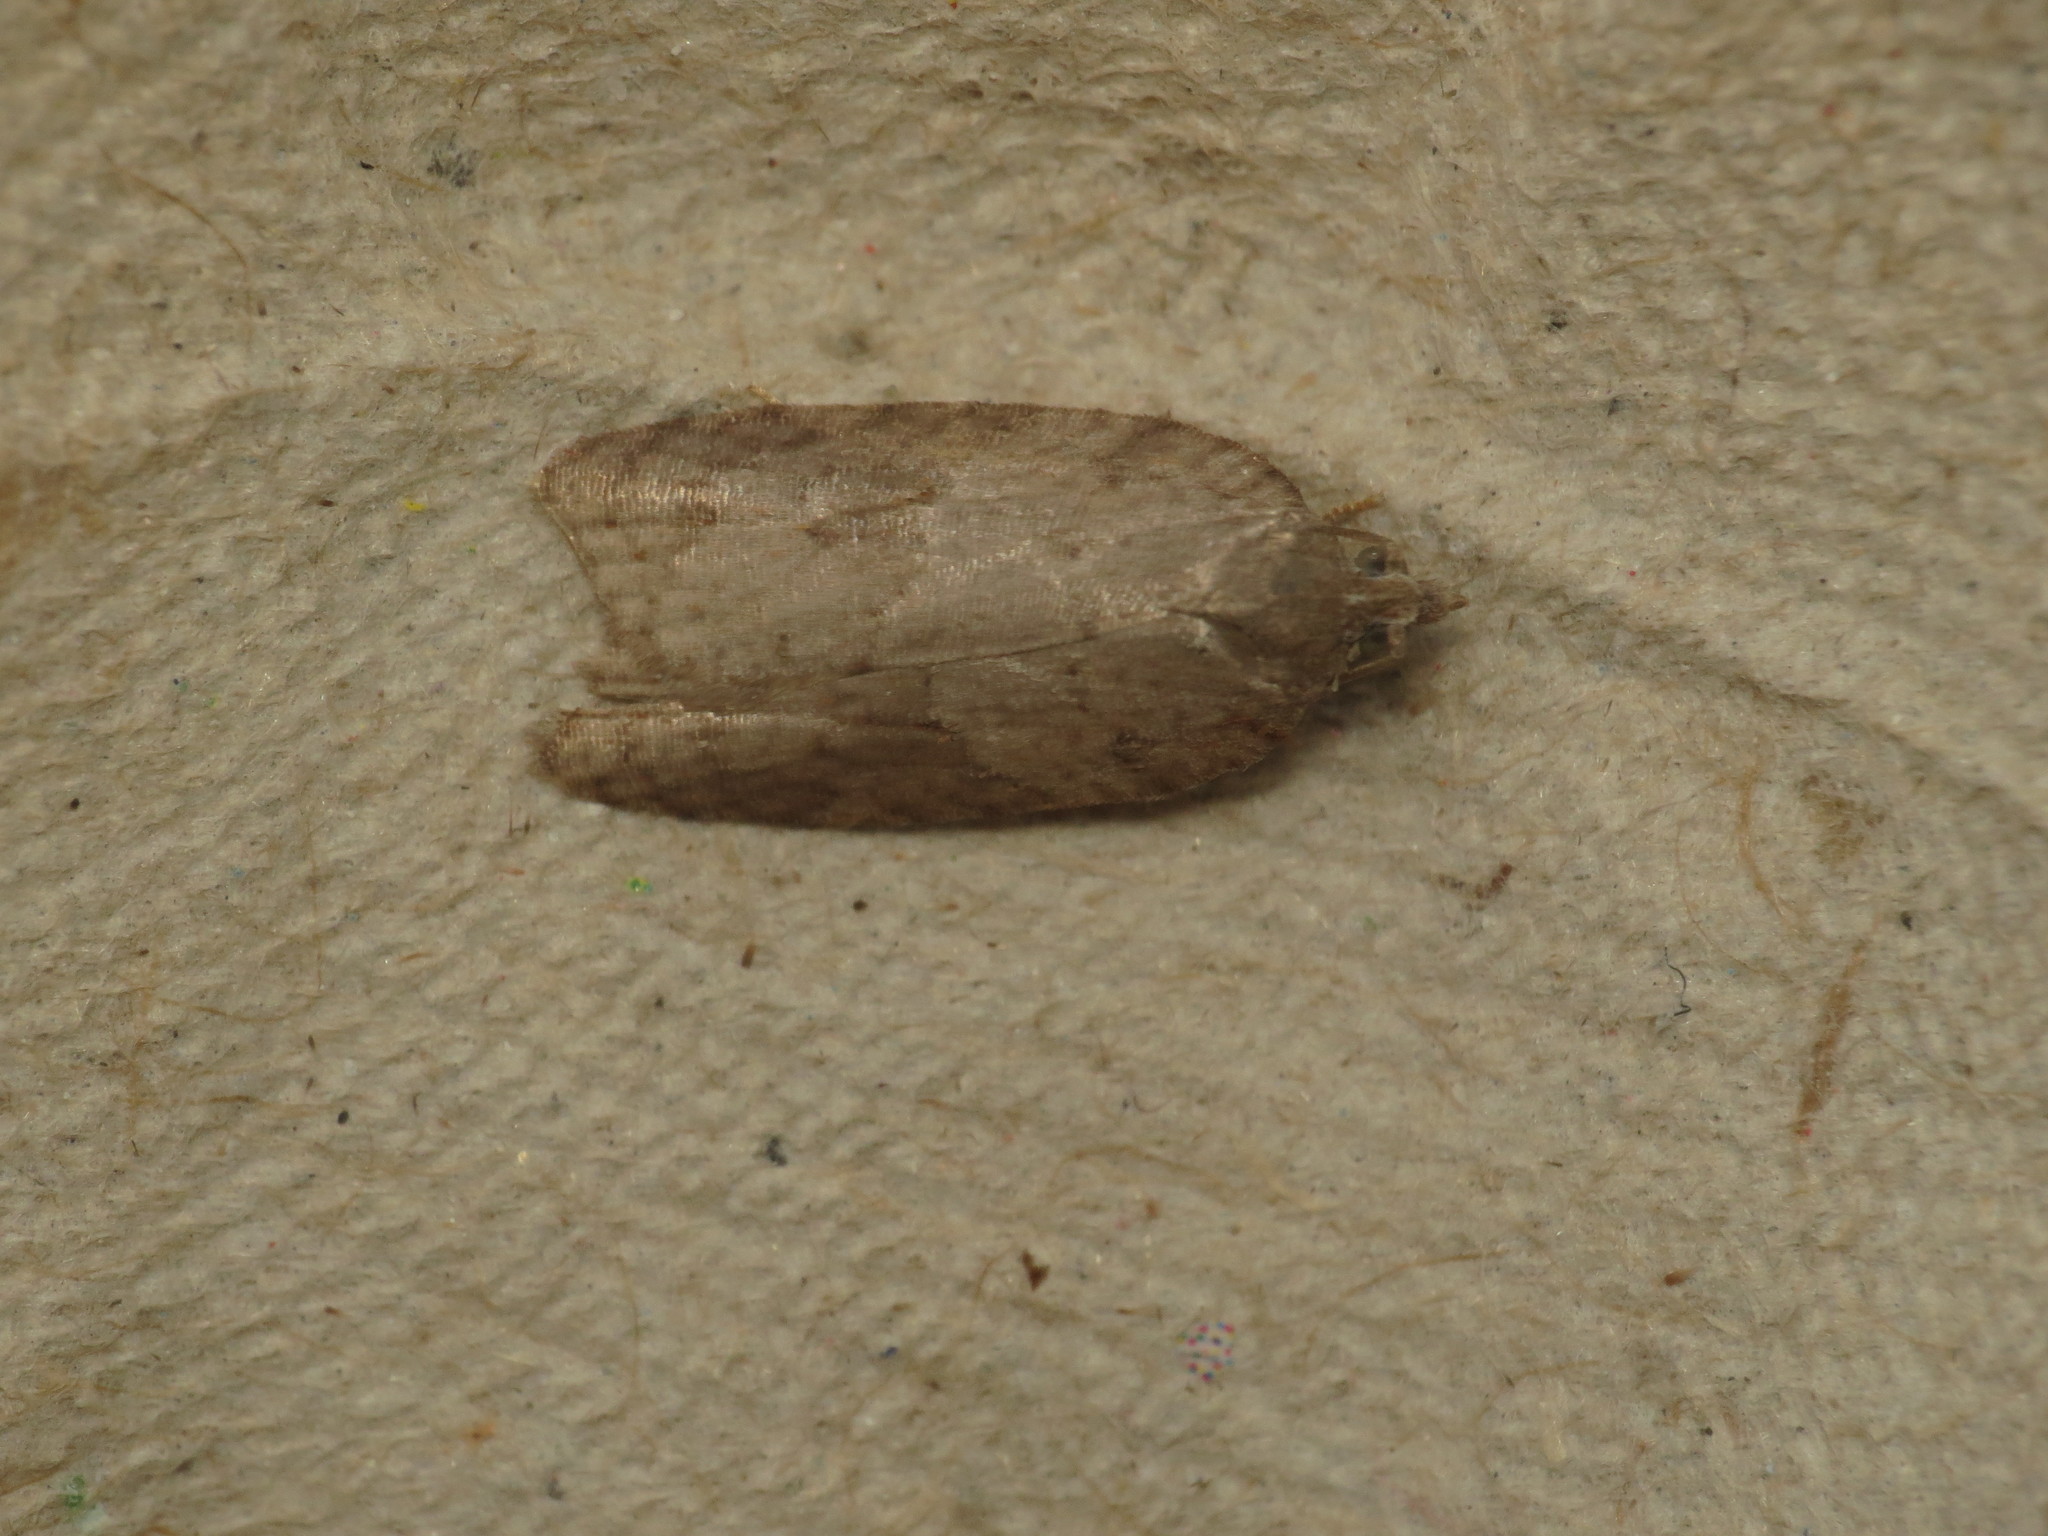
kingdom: Animalia
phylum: Arthropoda
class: Insecta
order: Lepidoptera
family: Tortricidae
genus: Acleris
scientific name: Acleris sparsana
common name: Ashy button
